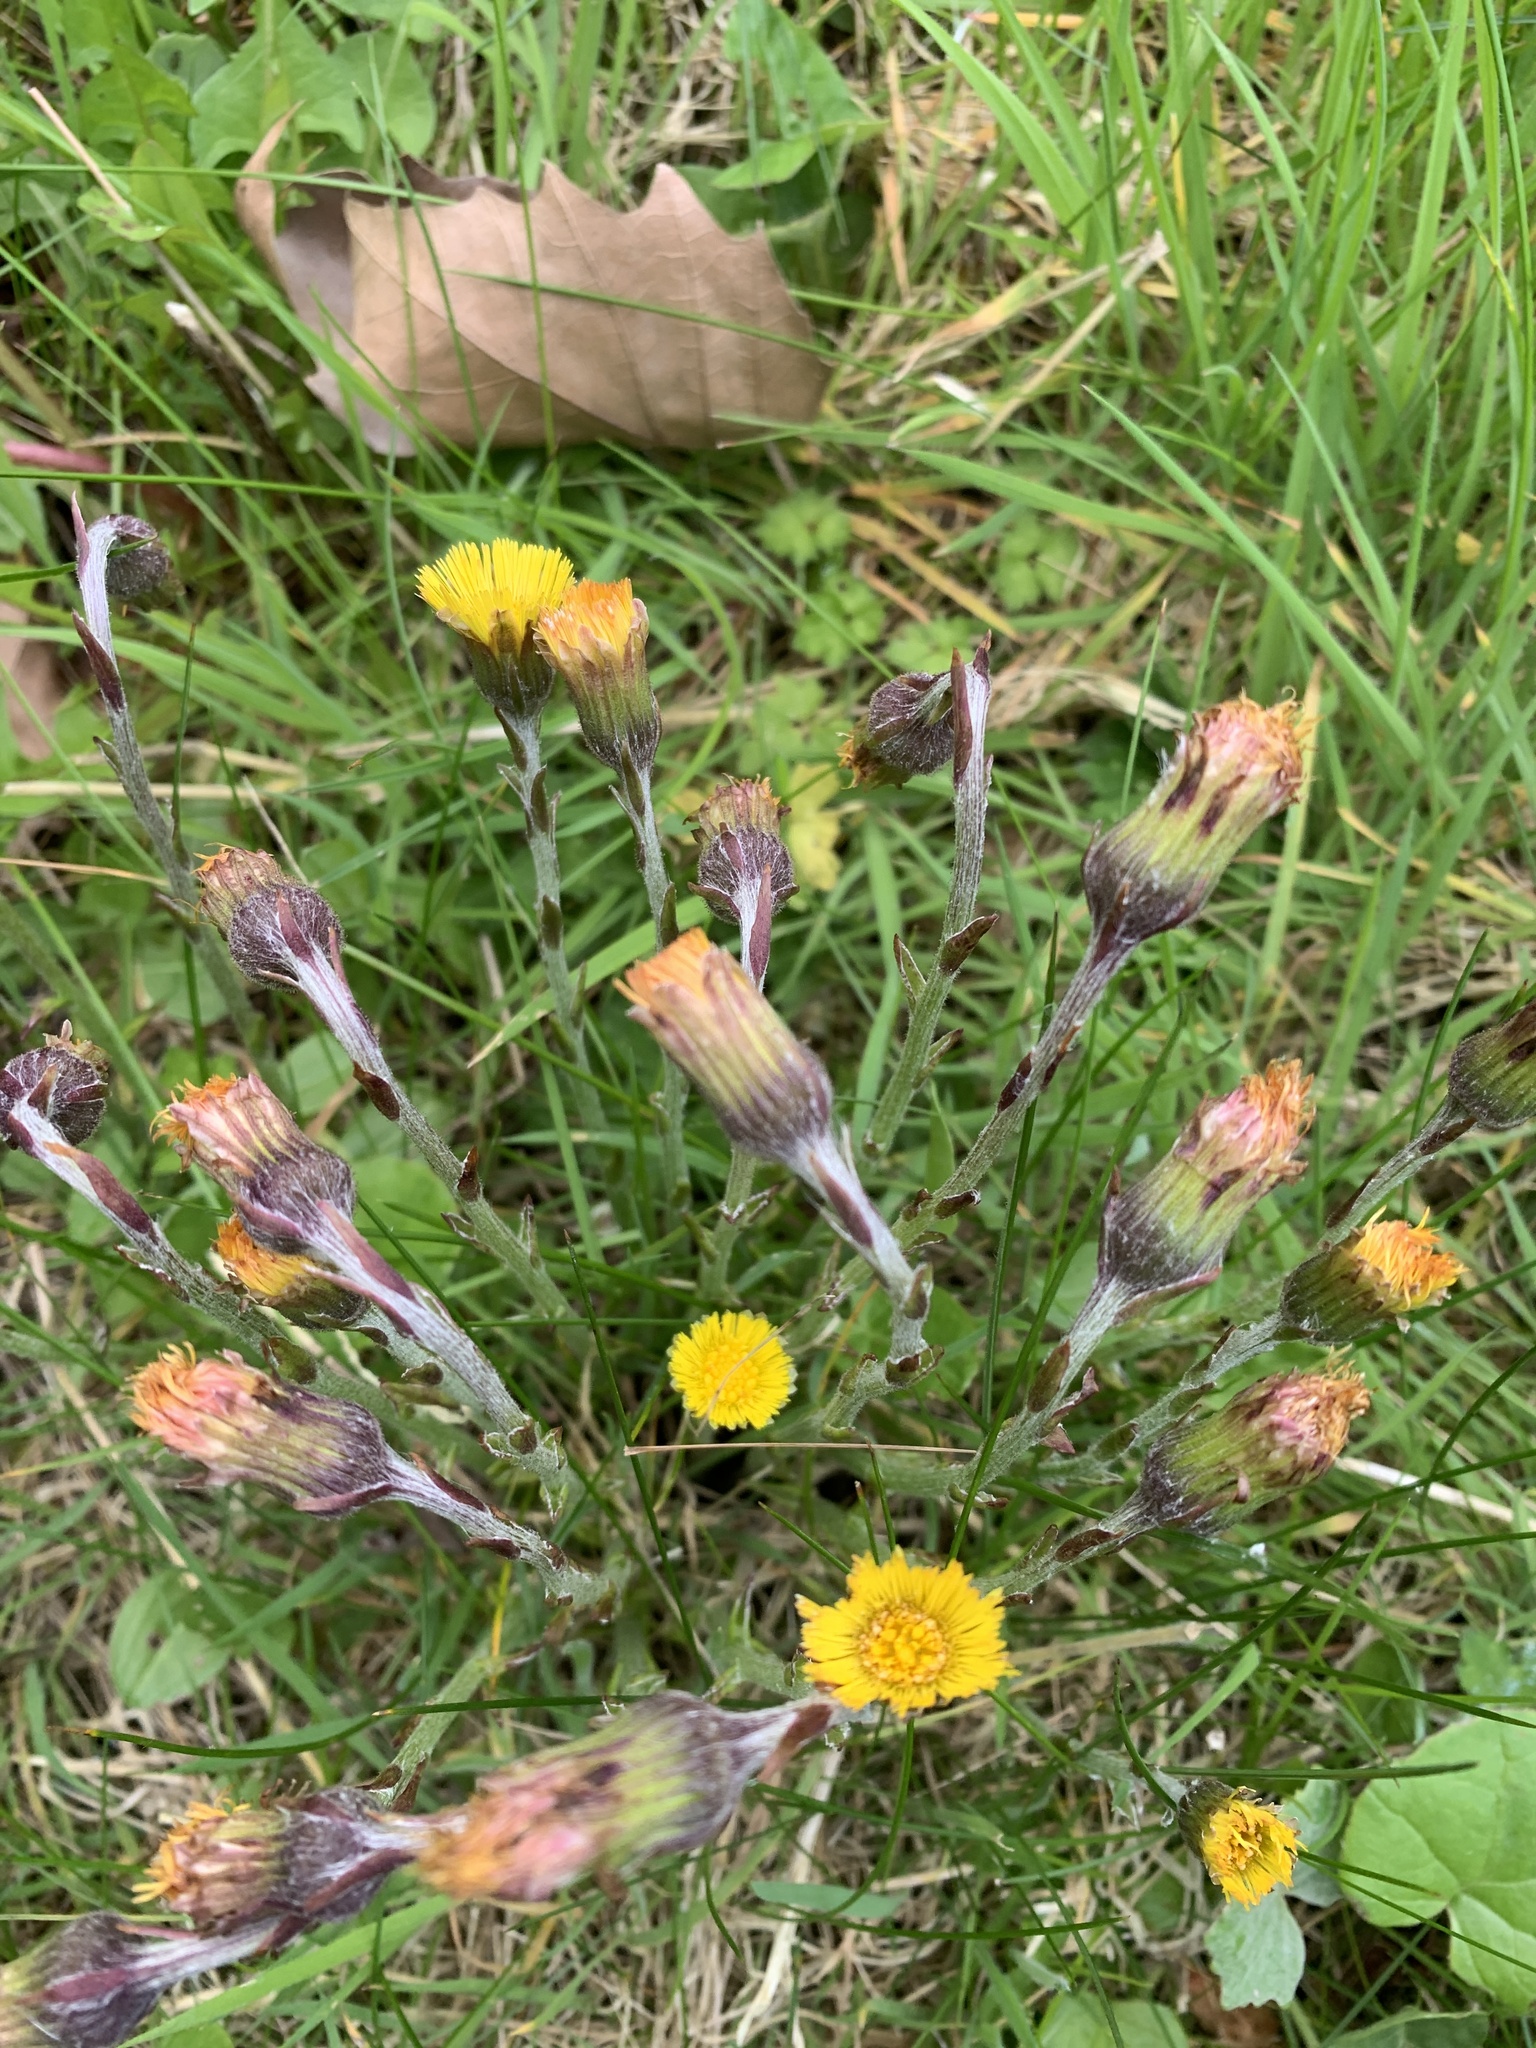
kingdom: Plantae
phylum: Tracheophyta
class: Magnoliopsida
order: Asterales
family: Asteraceae
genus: Tussilago
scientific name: Tussilago farfara
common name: Coltsfoot
